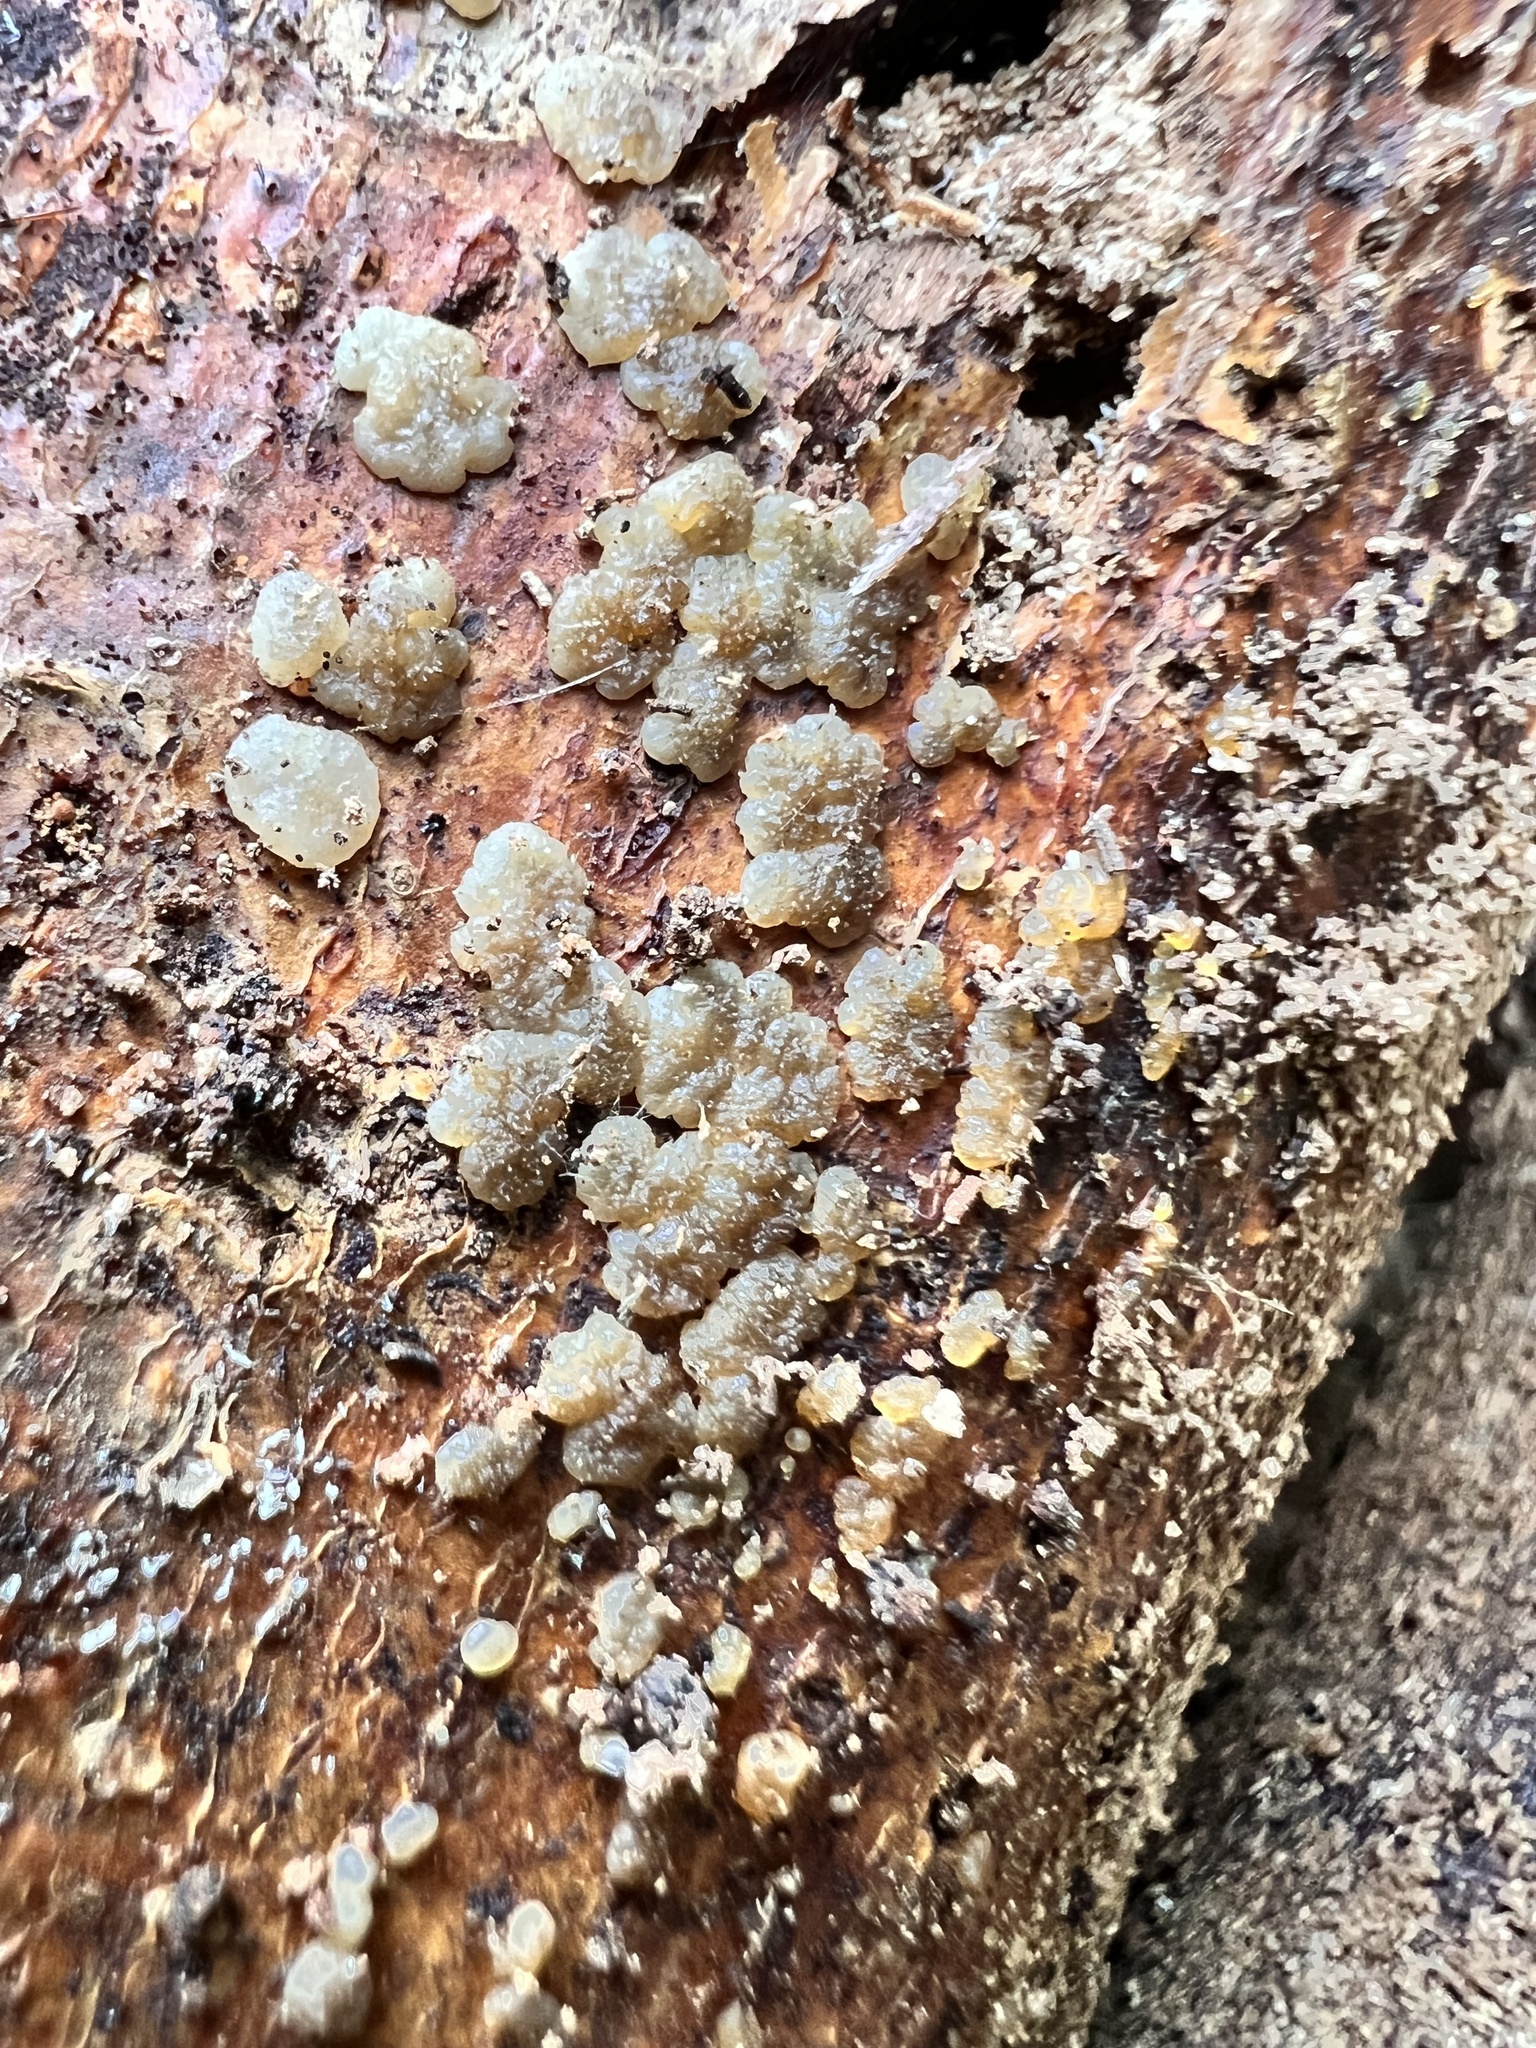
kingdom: Fungi
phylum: Basidiomycota
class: Agaricomycetes
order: Auriculariales
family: Auriculariaceae
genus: Tremellochaete
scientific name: Tremellochaete
